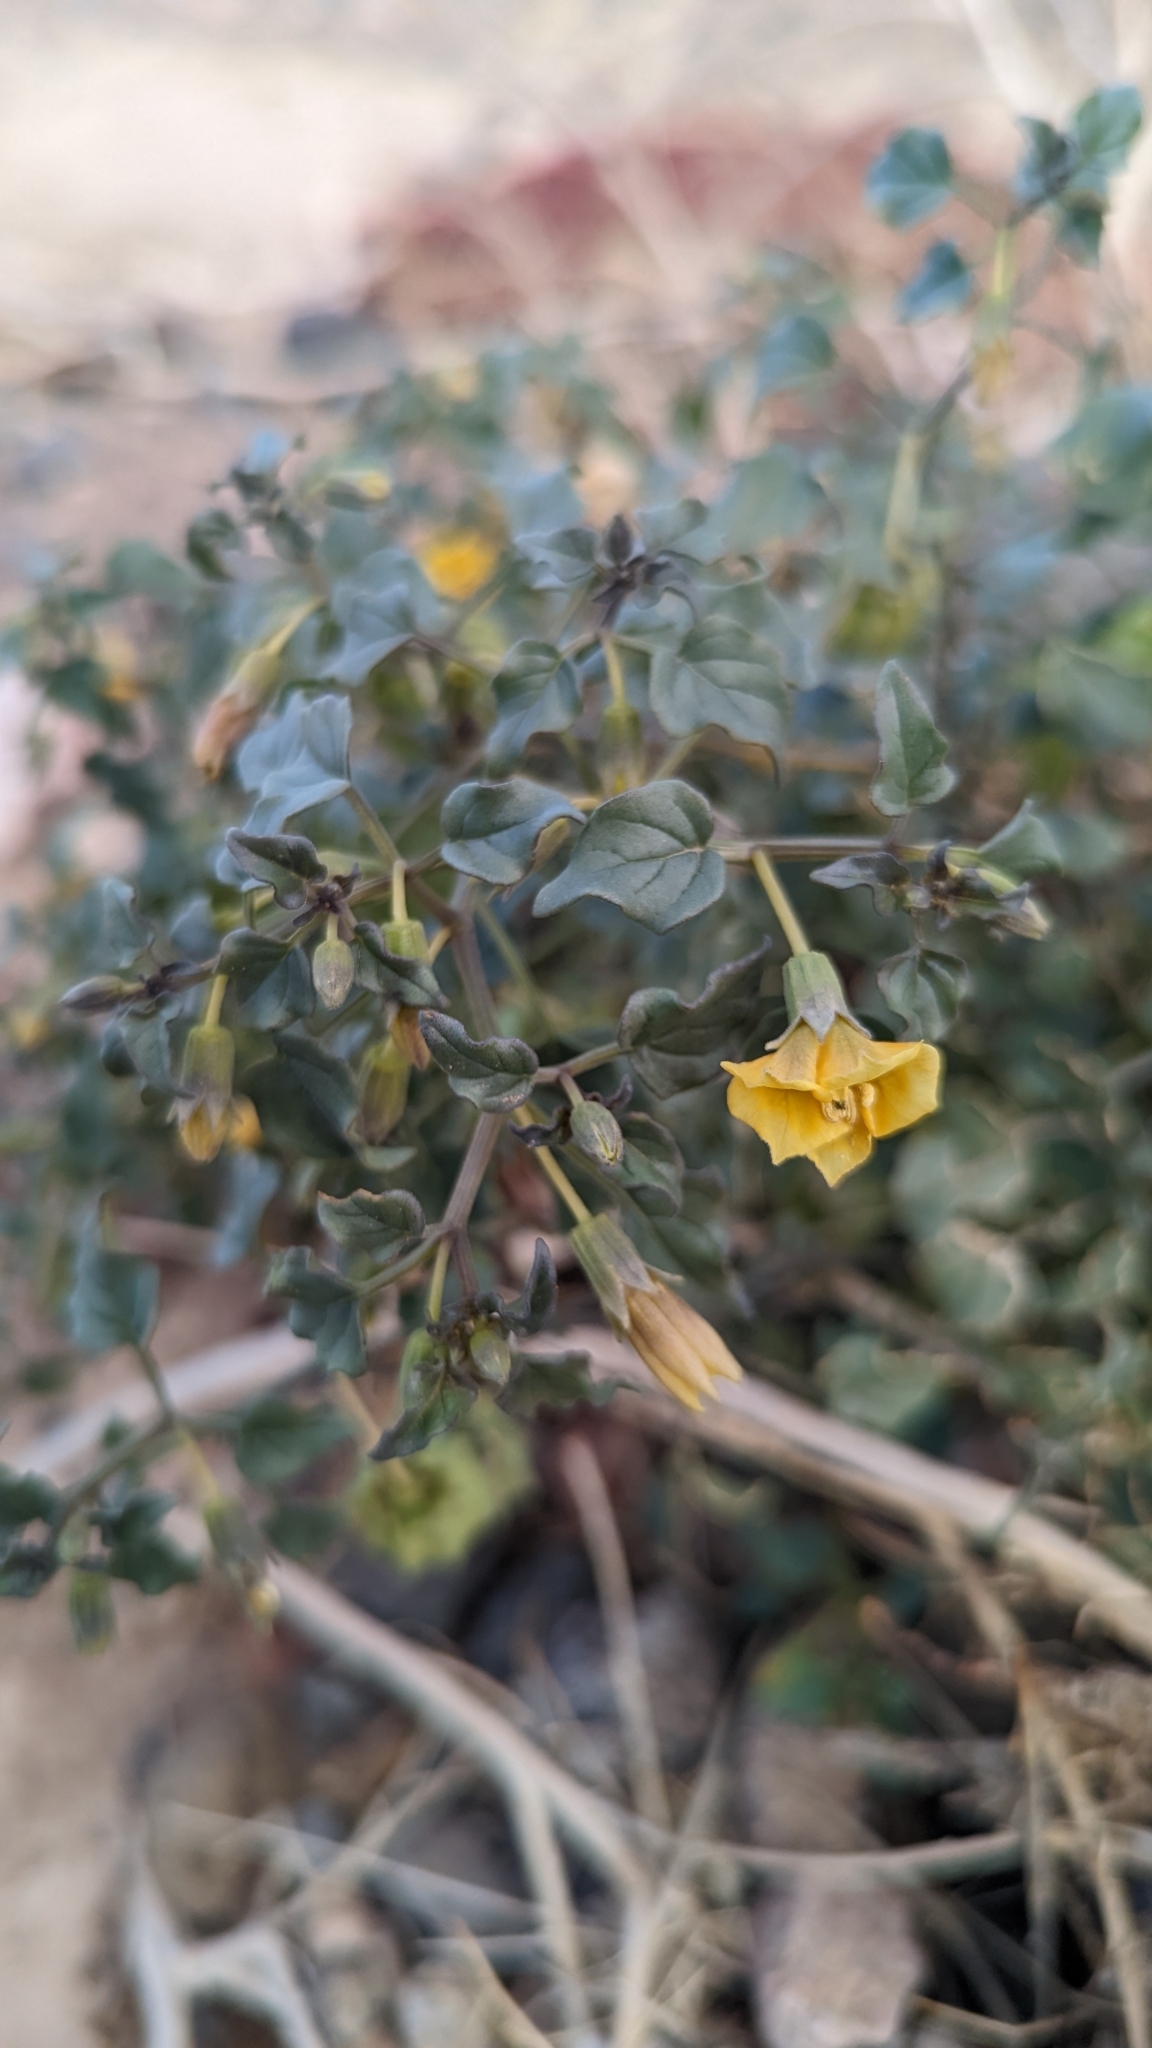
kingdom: Plantae
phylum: Tracheophyta
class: Magnoliopsida
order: Solanales
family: Solanaceae
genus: Physalis
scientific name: Physalis crassifolia
